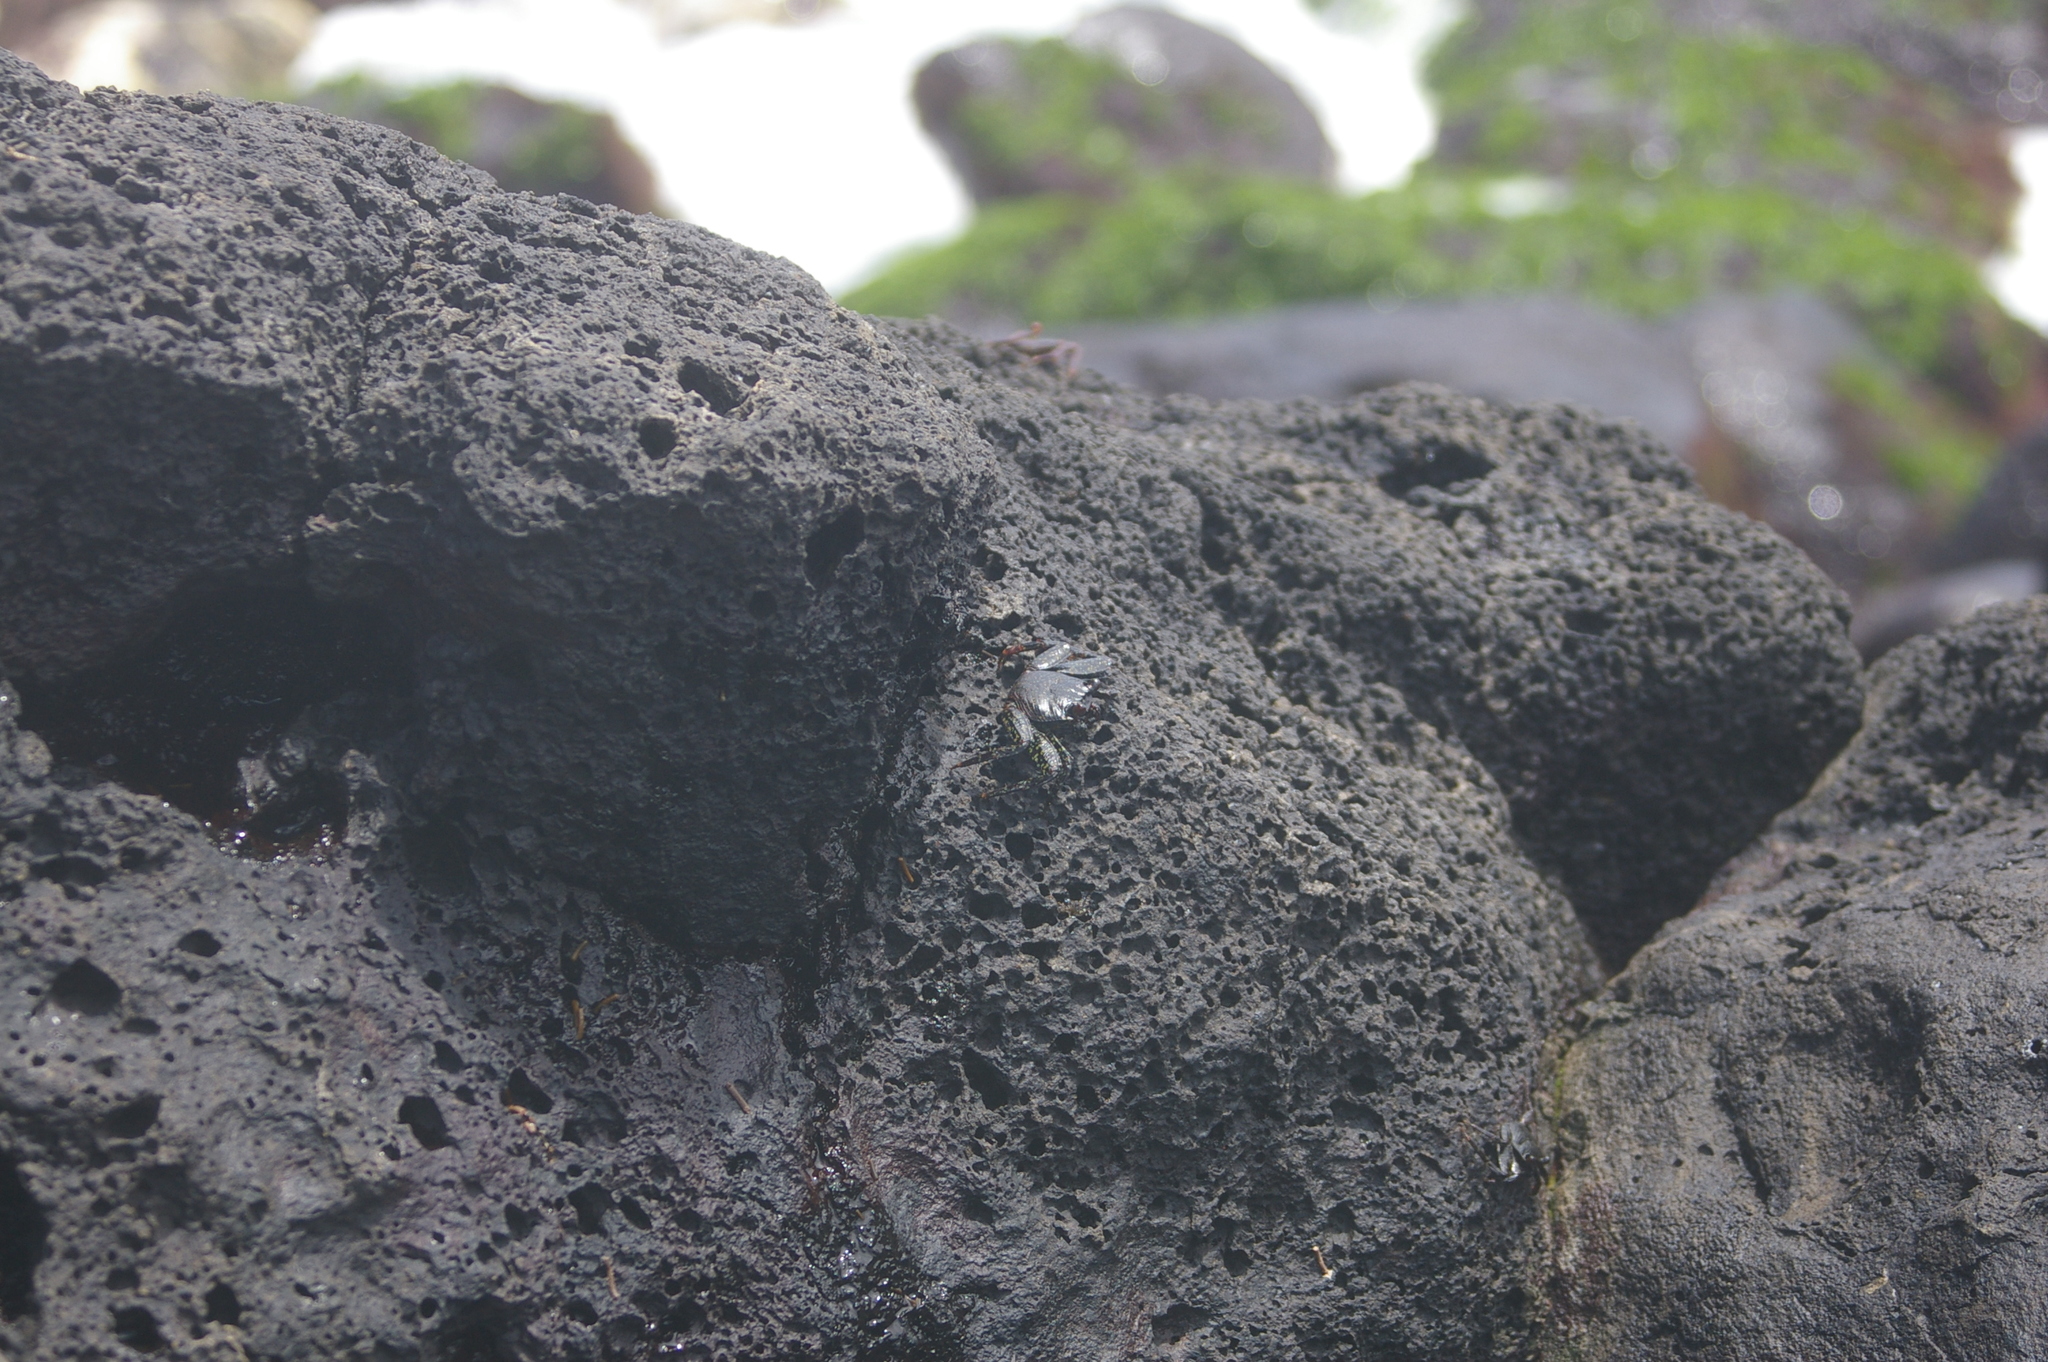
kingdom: Animalia
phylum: Arthropoda
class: Malacostraca
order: Decapoda
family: Grapsidae
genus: Grapsus
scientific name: Grapsus grapsus
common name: Sally lightfoot
